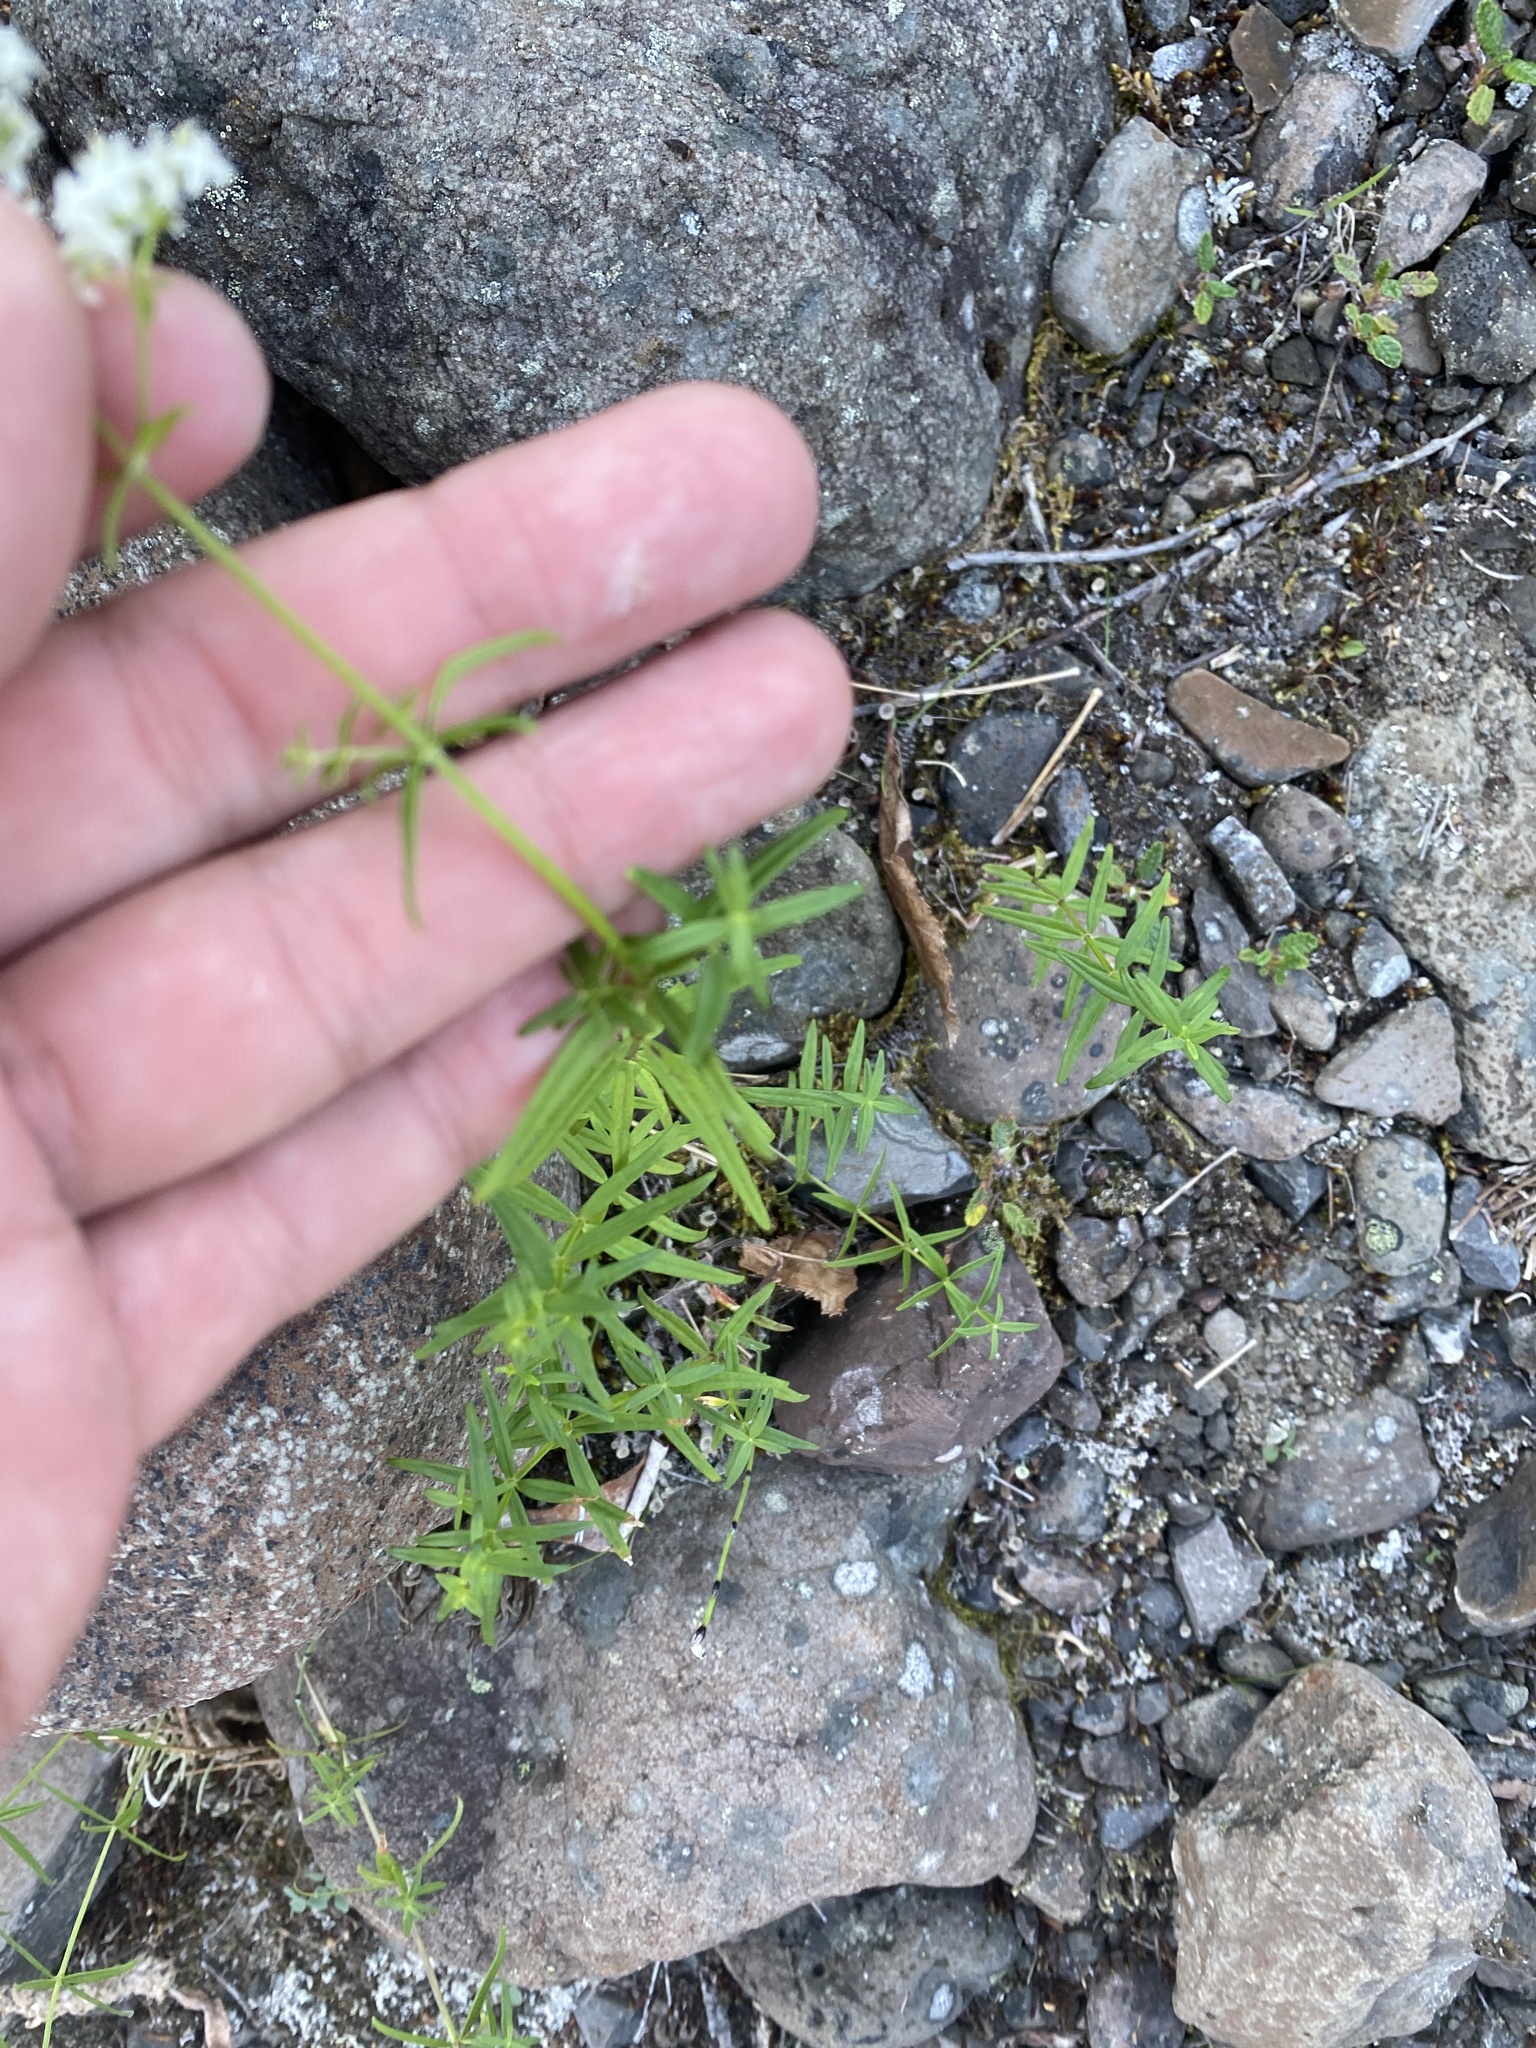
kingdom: Plantae
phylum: Tracheophyta
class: Magnoliopsida
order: Gentianales
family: Rubiaceae
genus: Galium
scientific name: Galium boreale
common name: Northern bedstraw
